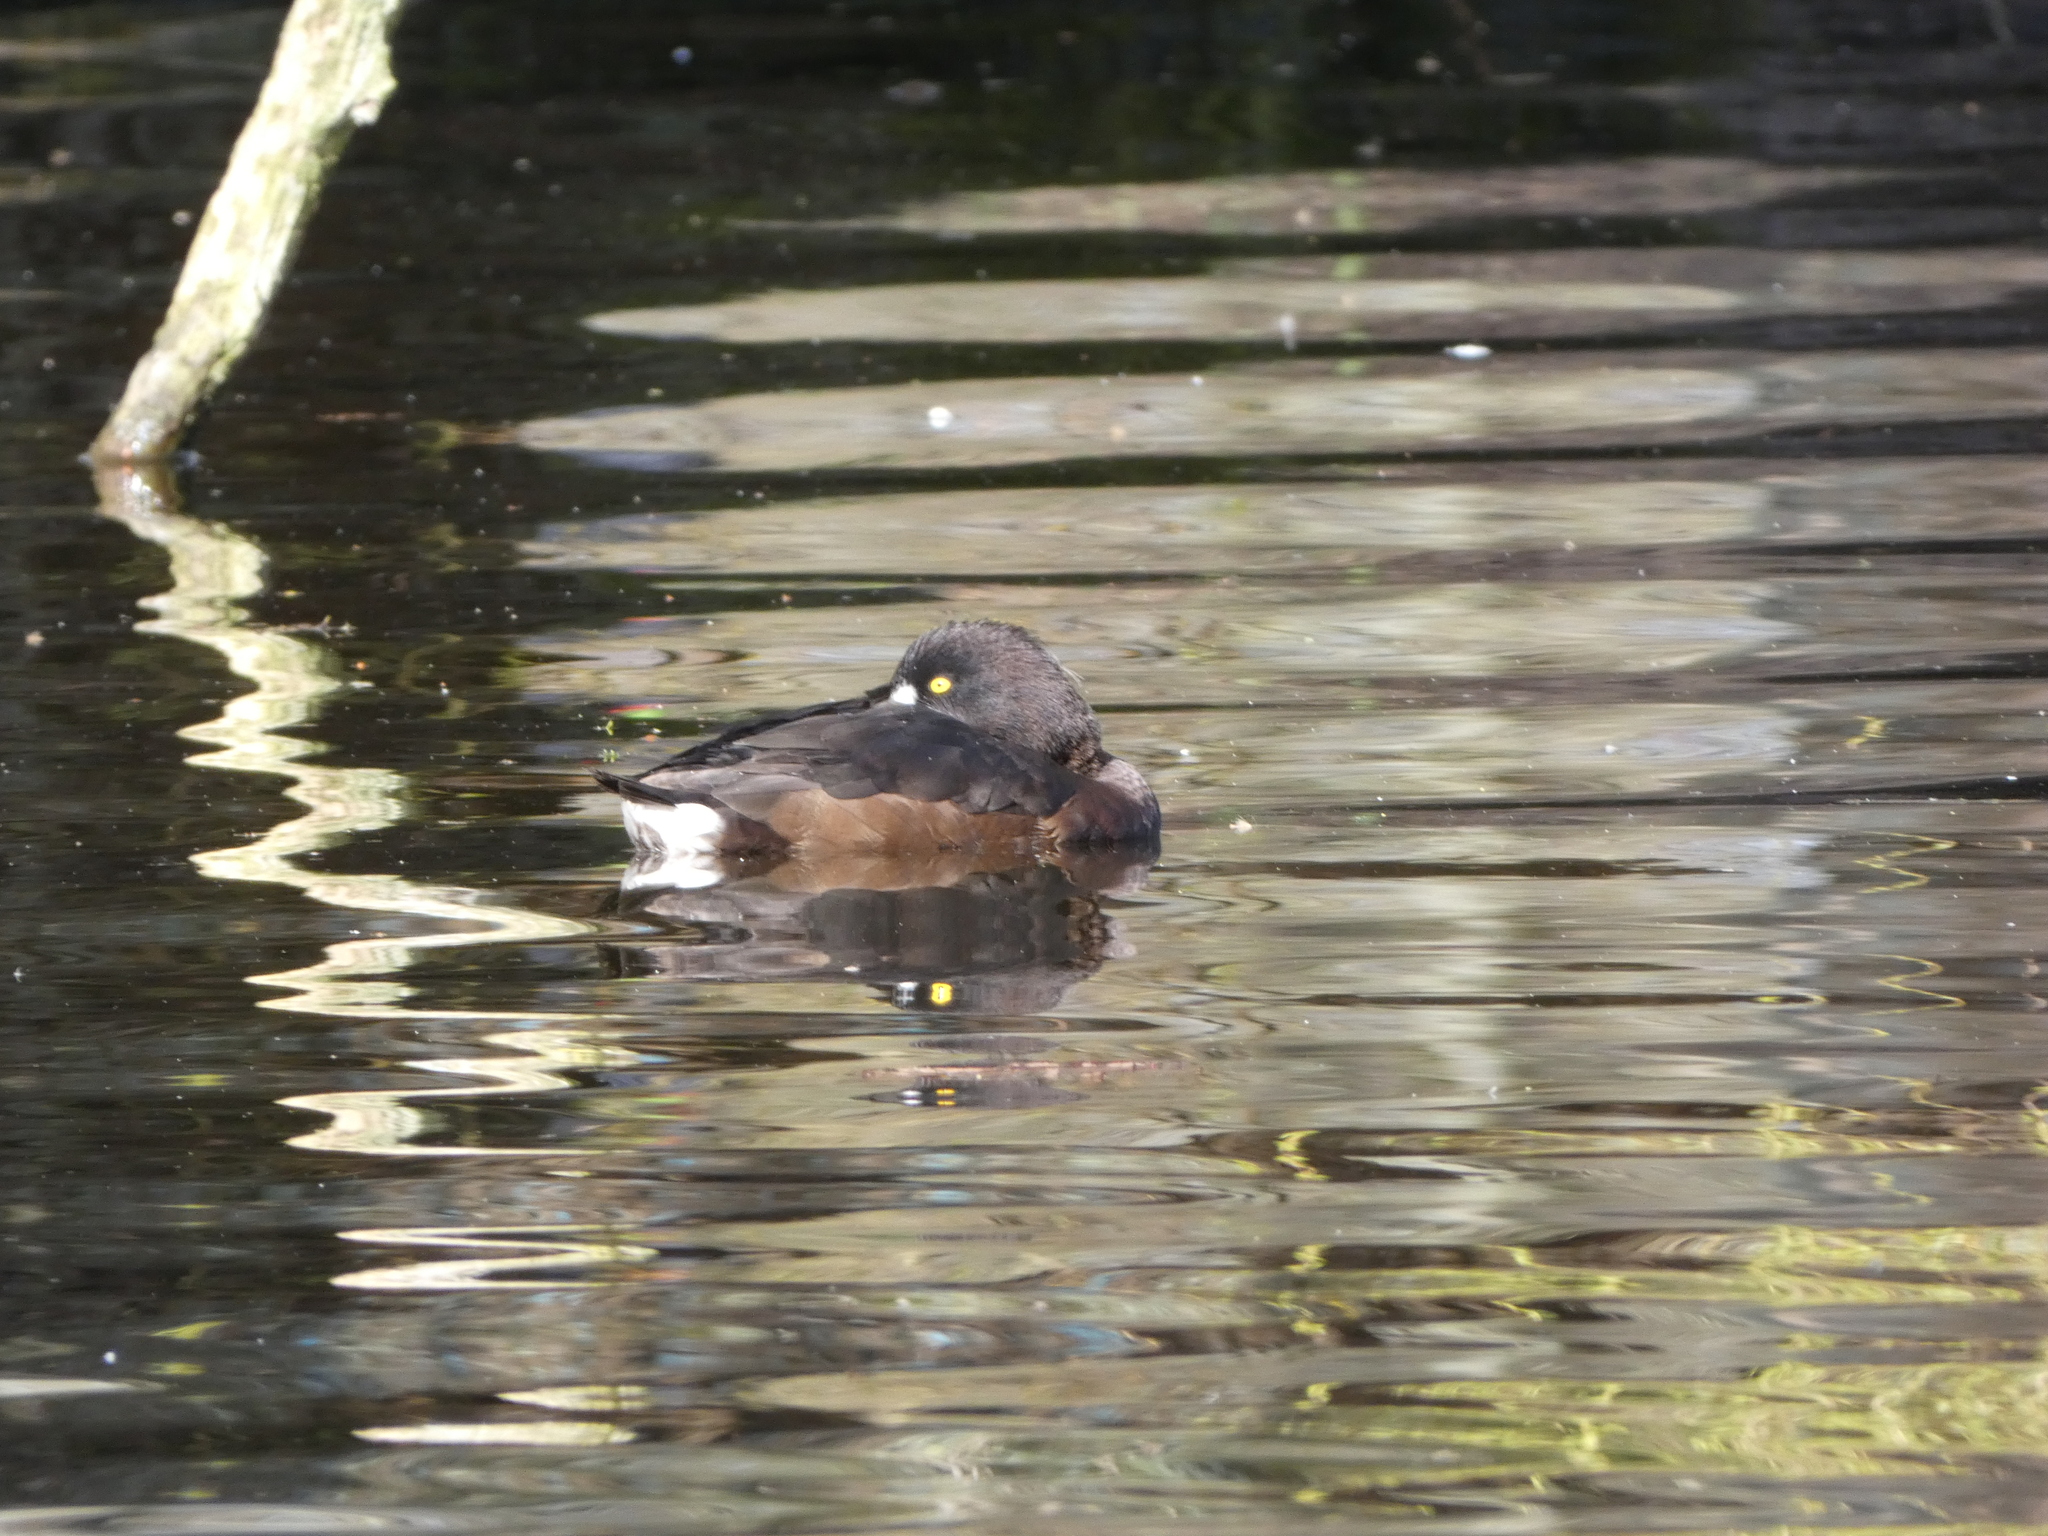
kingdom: Animalia
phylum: Chordata
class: Aves
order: Anseriformes
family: Anatidae
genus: Aythya
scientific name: Aythya fuligula
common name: Tufted duck
